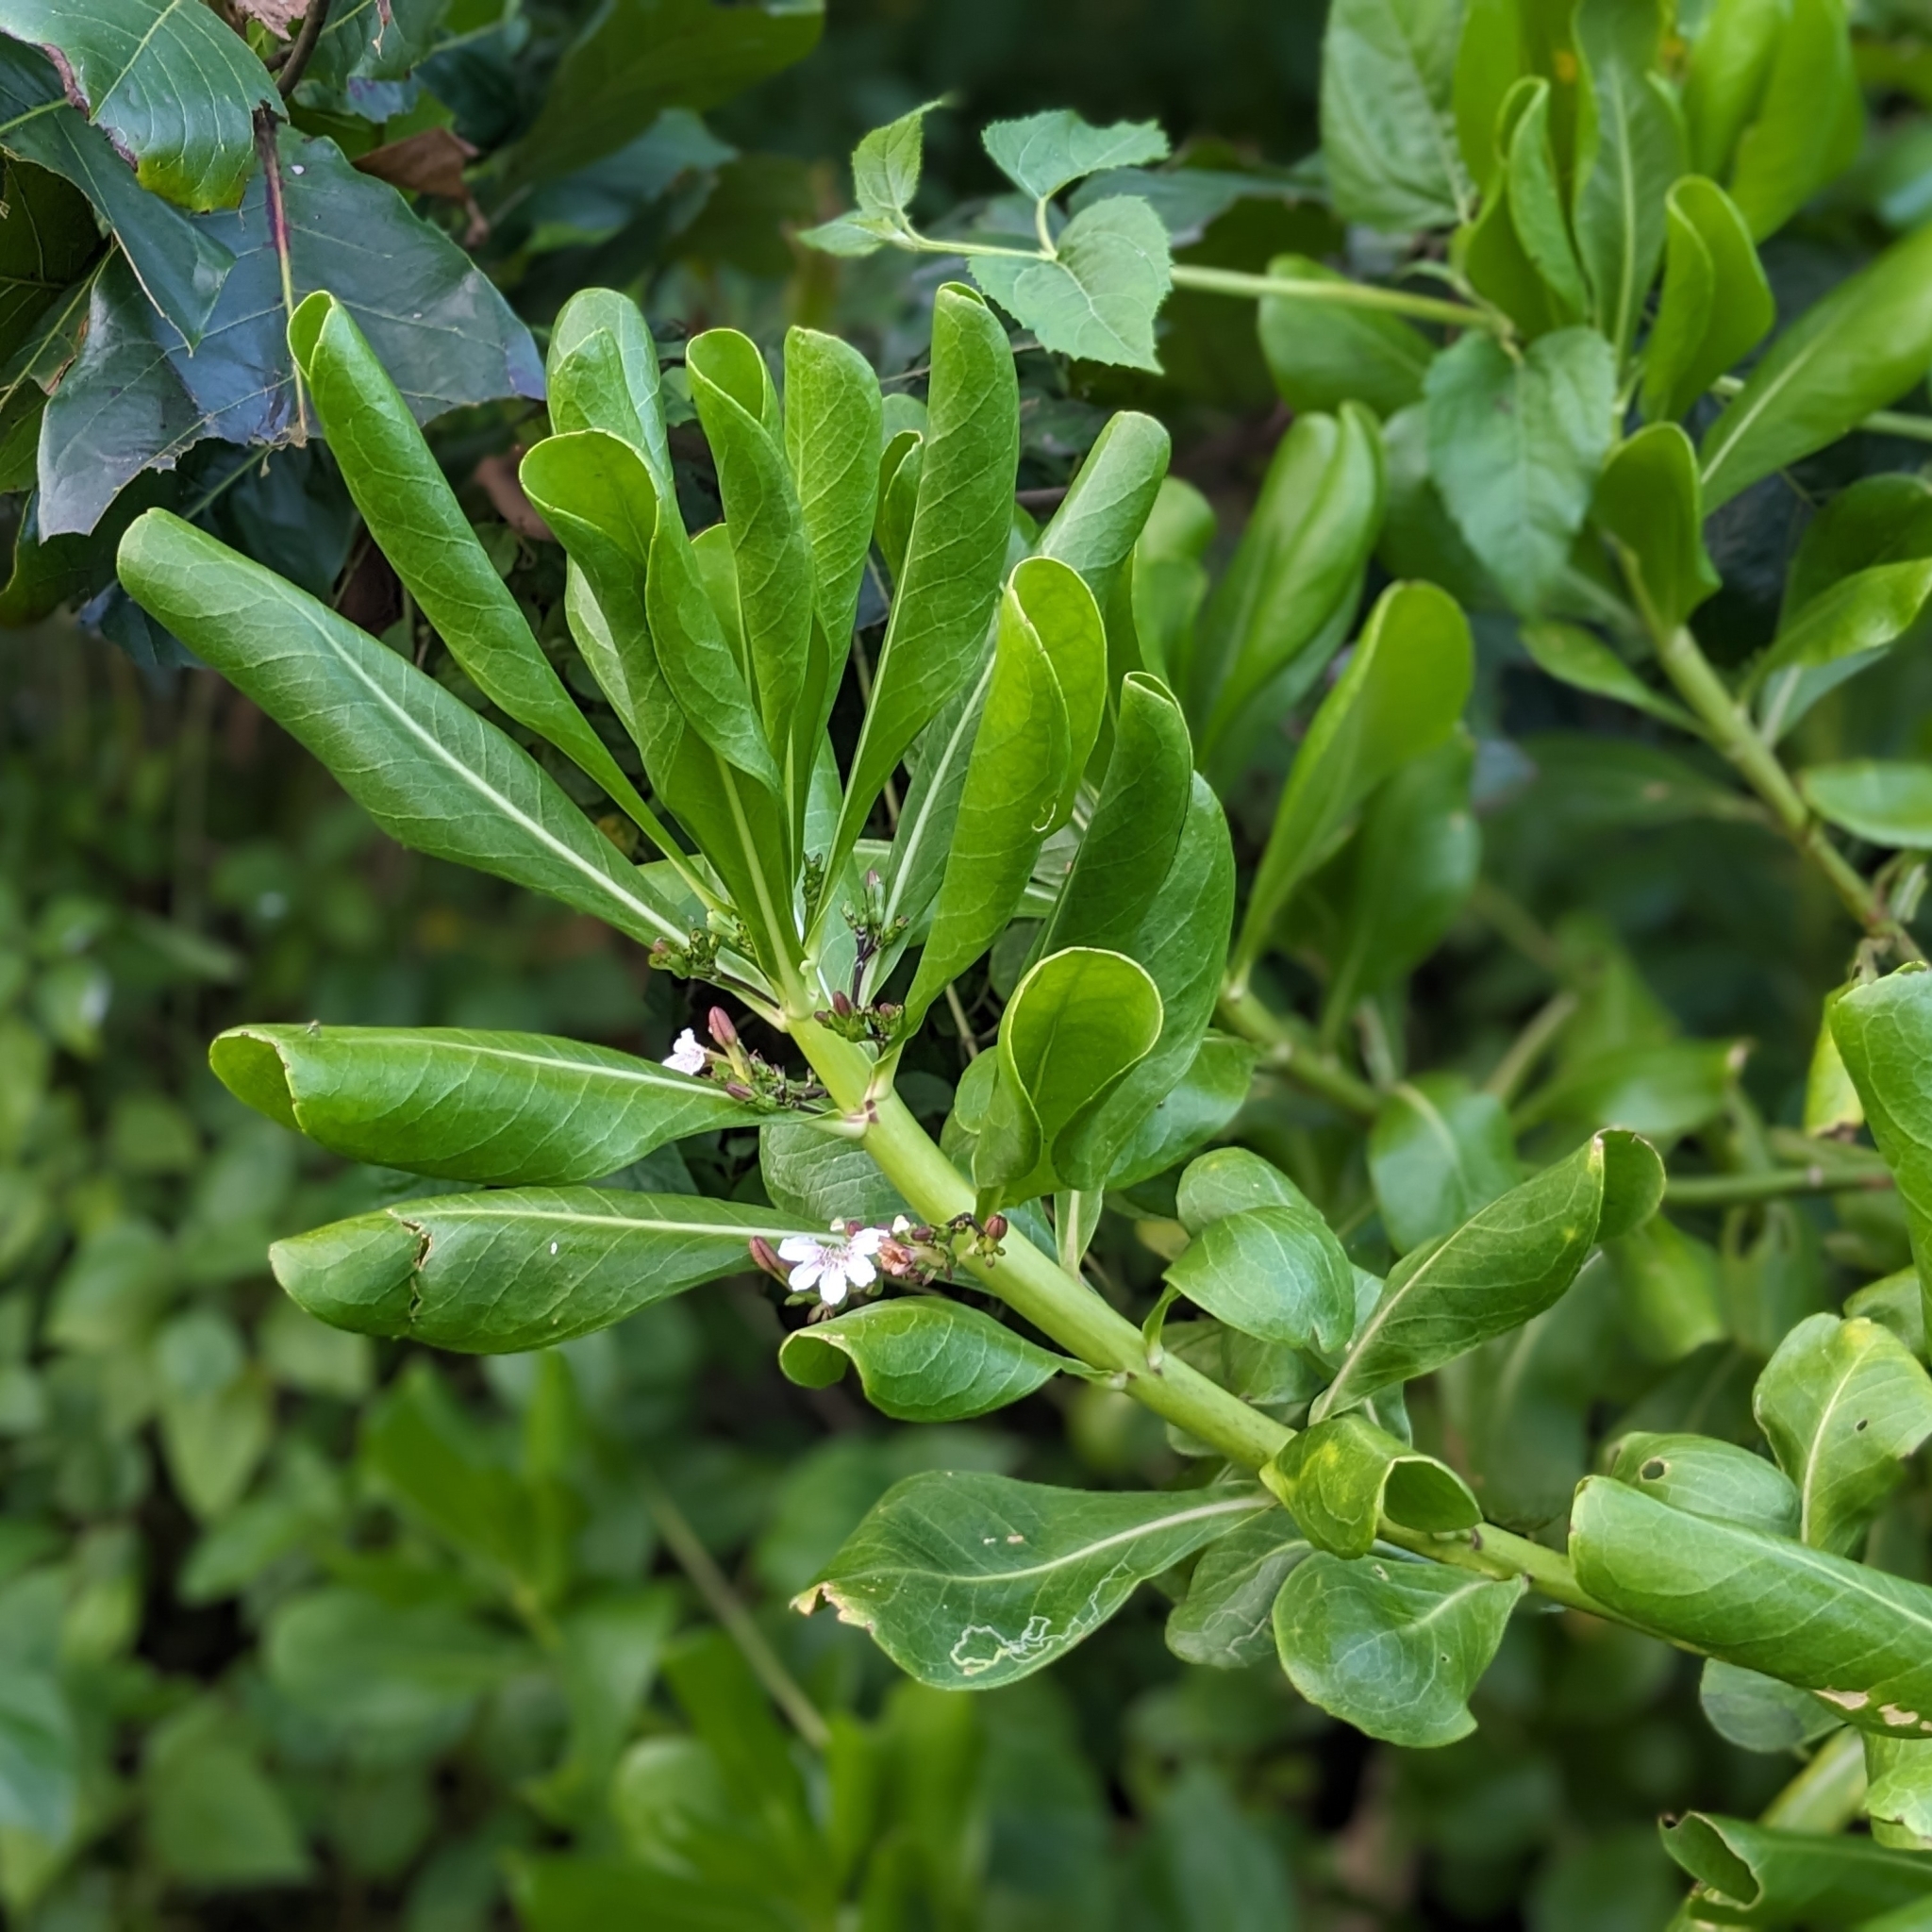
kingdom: Plantae
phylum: Tracheophyta
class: Magnoliopsida
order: Asterales
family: Goodeniaceae
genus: Scaevola
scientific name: Scaevola taccada
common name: Sea lettucetree
